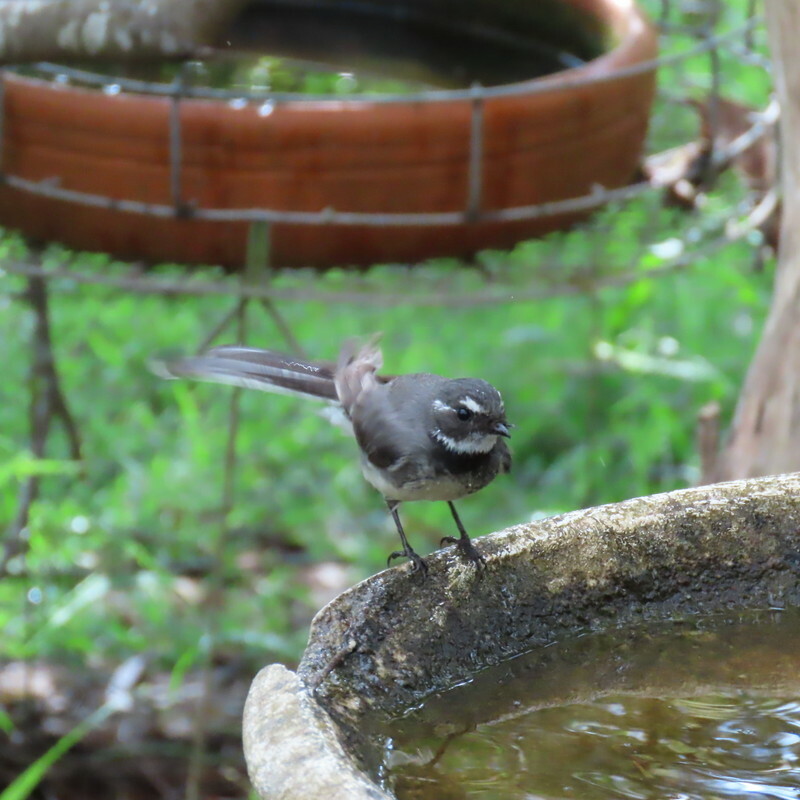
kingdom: Animalia
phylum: Chordata
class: Aves
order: Passeriformes
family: Rhipiduridae
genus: Rhipidura
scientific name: Rhipidura albiscapa
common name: Grey fantail
